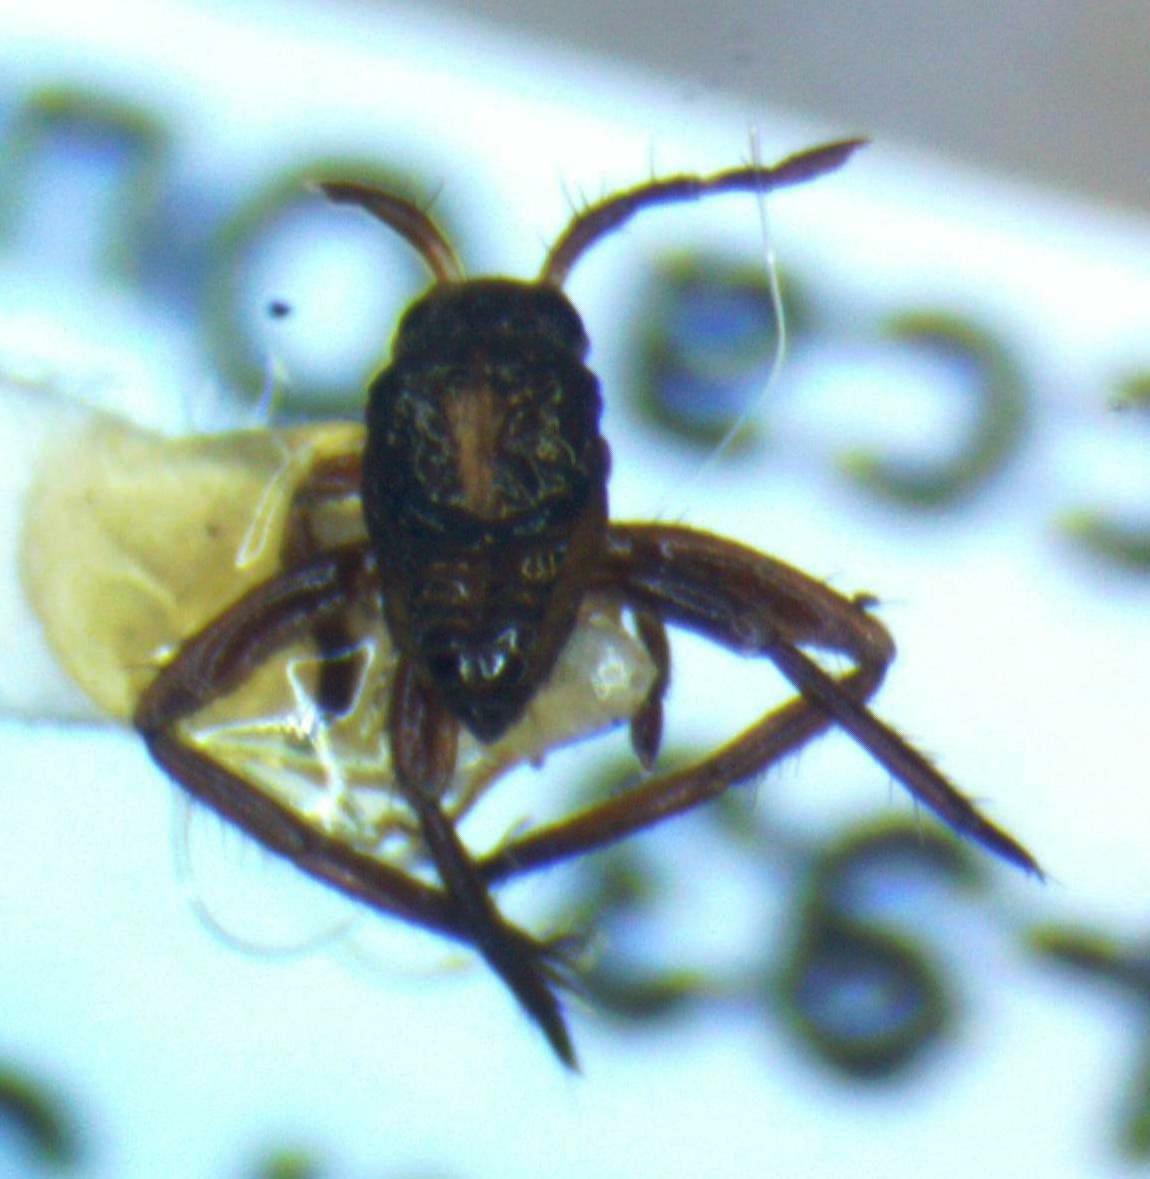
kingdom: Animalia
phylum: Arthropoda
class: Insecta
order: Hemiptera
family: Veliidae
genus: Rhagovelia
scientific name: Rhagovelia
